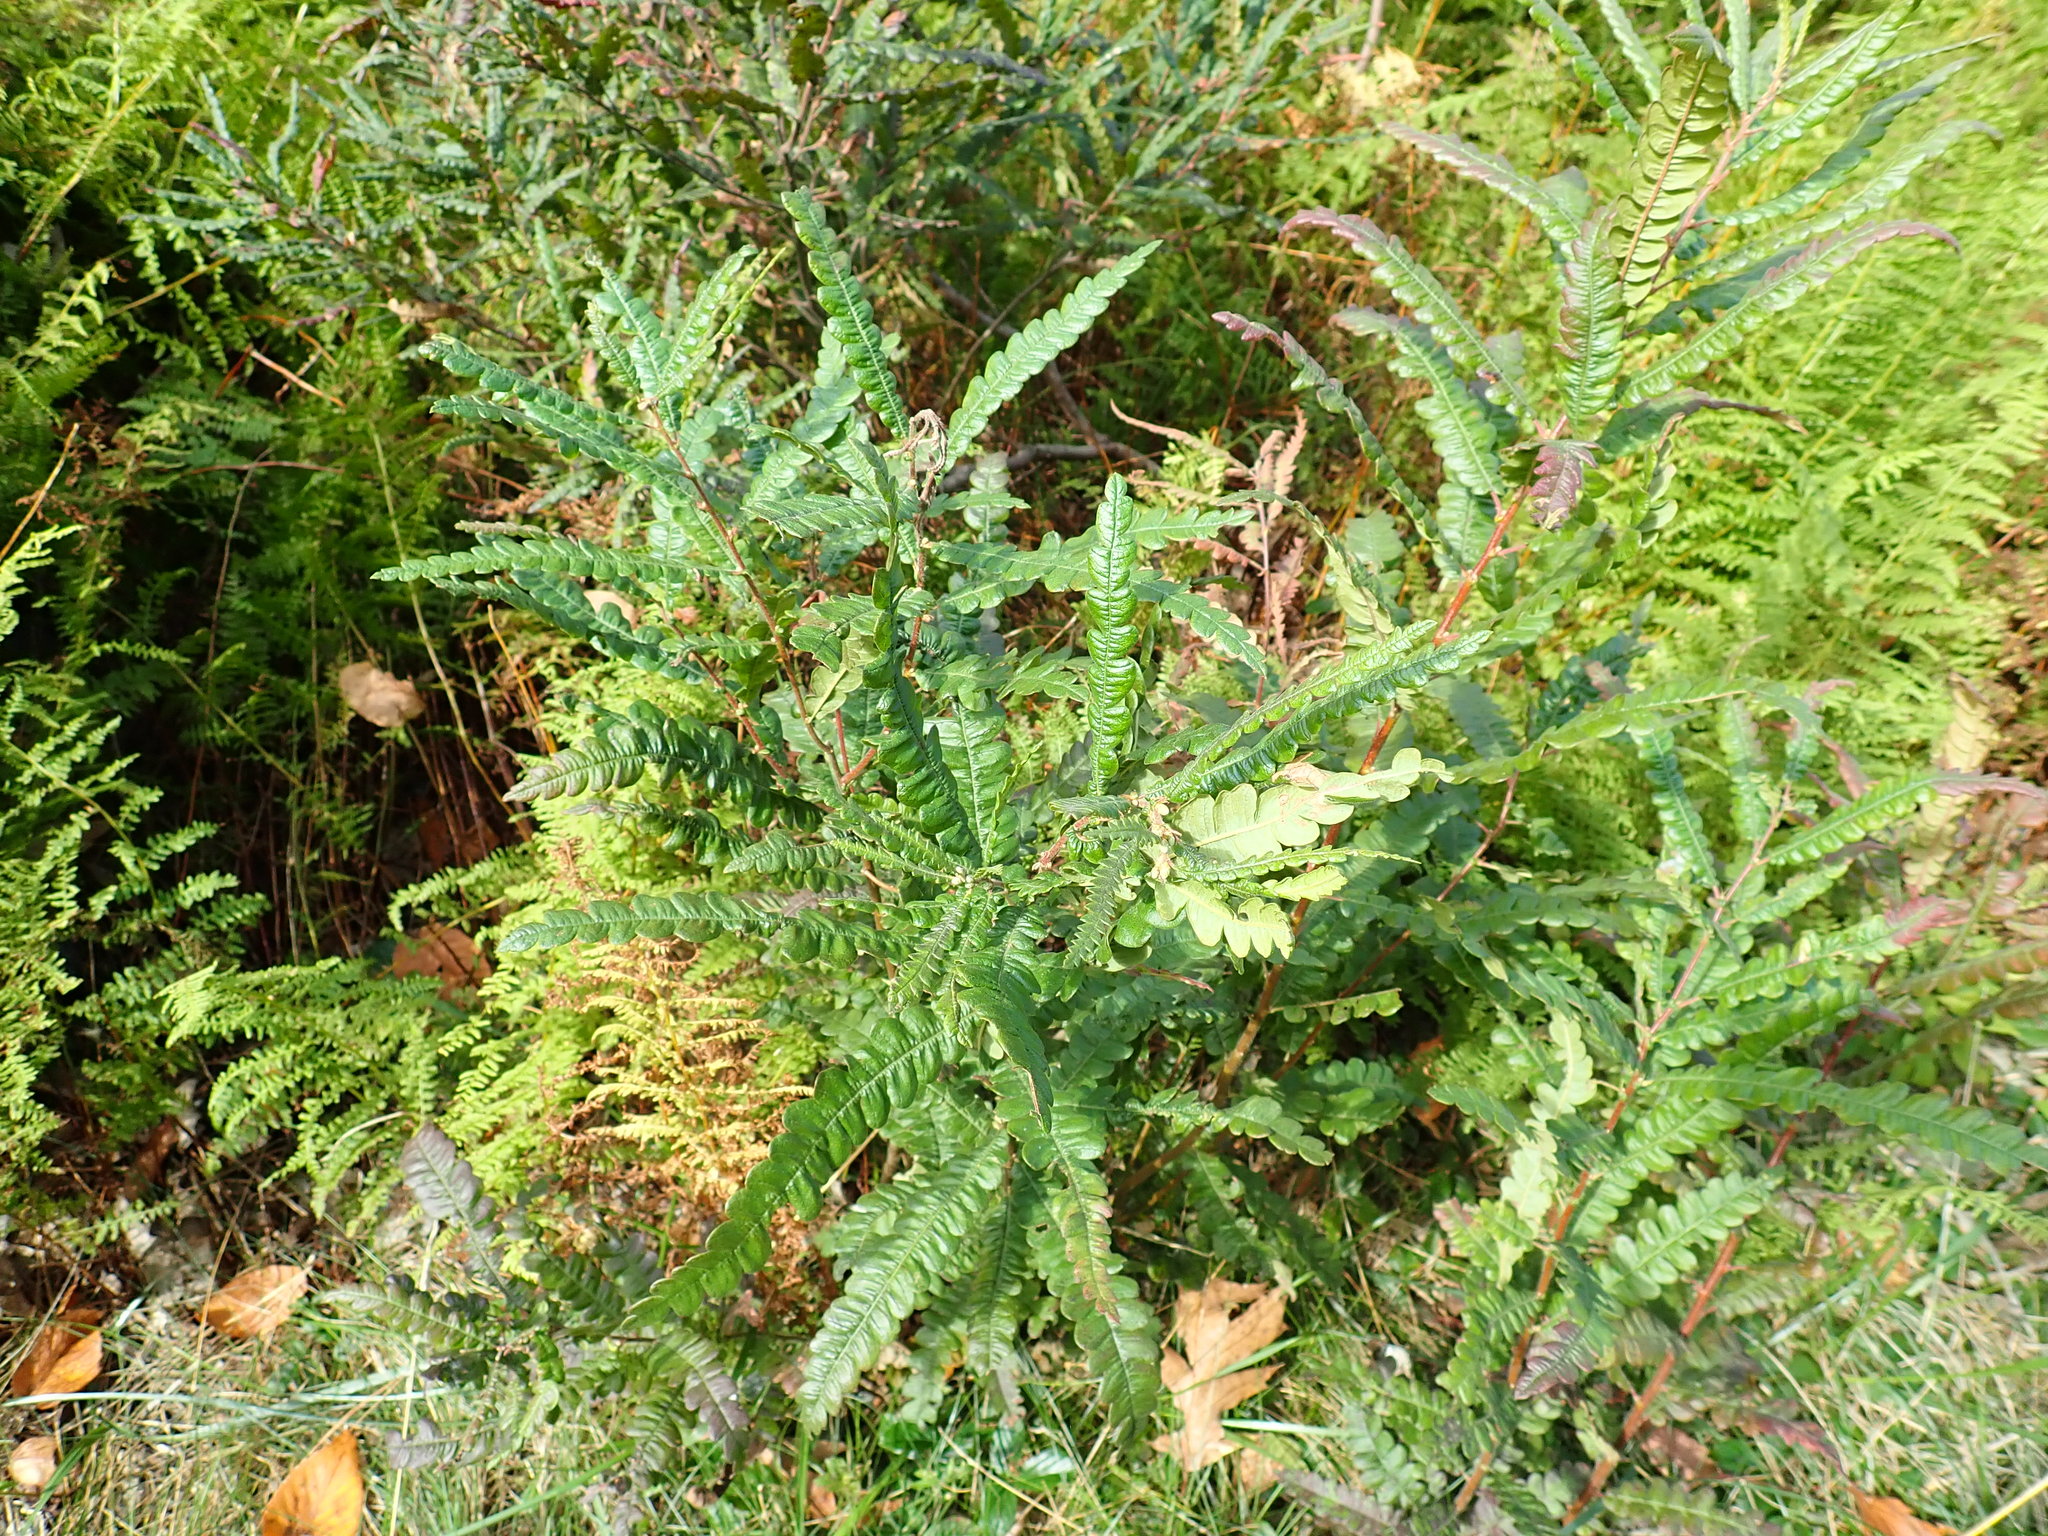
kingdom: Plantae
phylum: Tracheophyta
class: Magnoliopsida
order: Fagales
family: Myricaceae
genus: Comptonia
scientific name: Comptonia peregrina
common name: Sweet-fern
